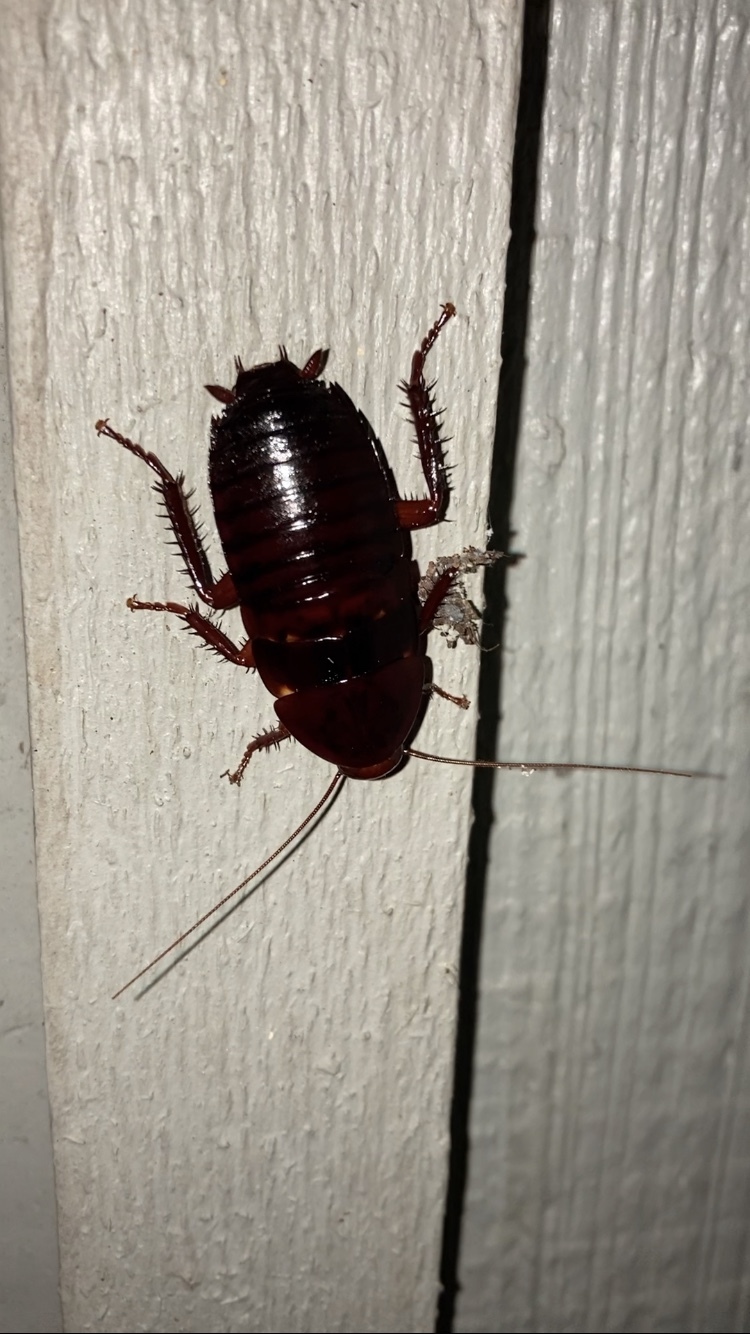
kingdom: Animalia
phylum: Arthropoda
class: Insecta
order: Blattodea
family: Blattidae
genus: Eurycotis
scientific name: Eurycotis floridana
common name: Florida cockroach
